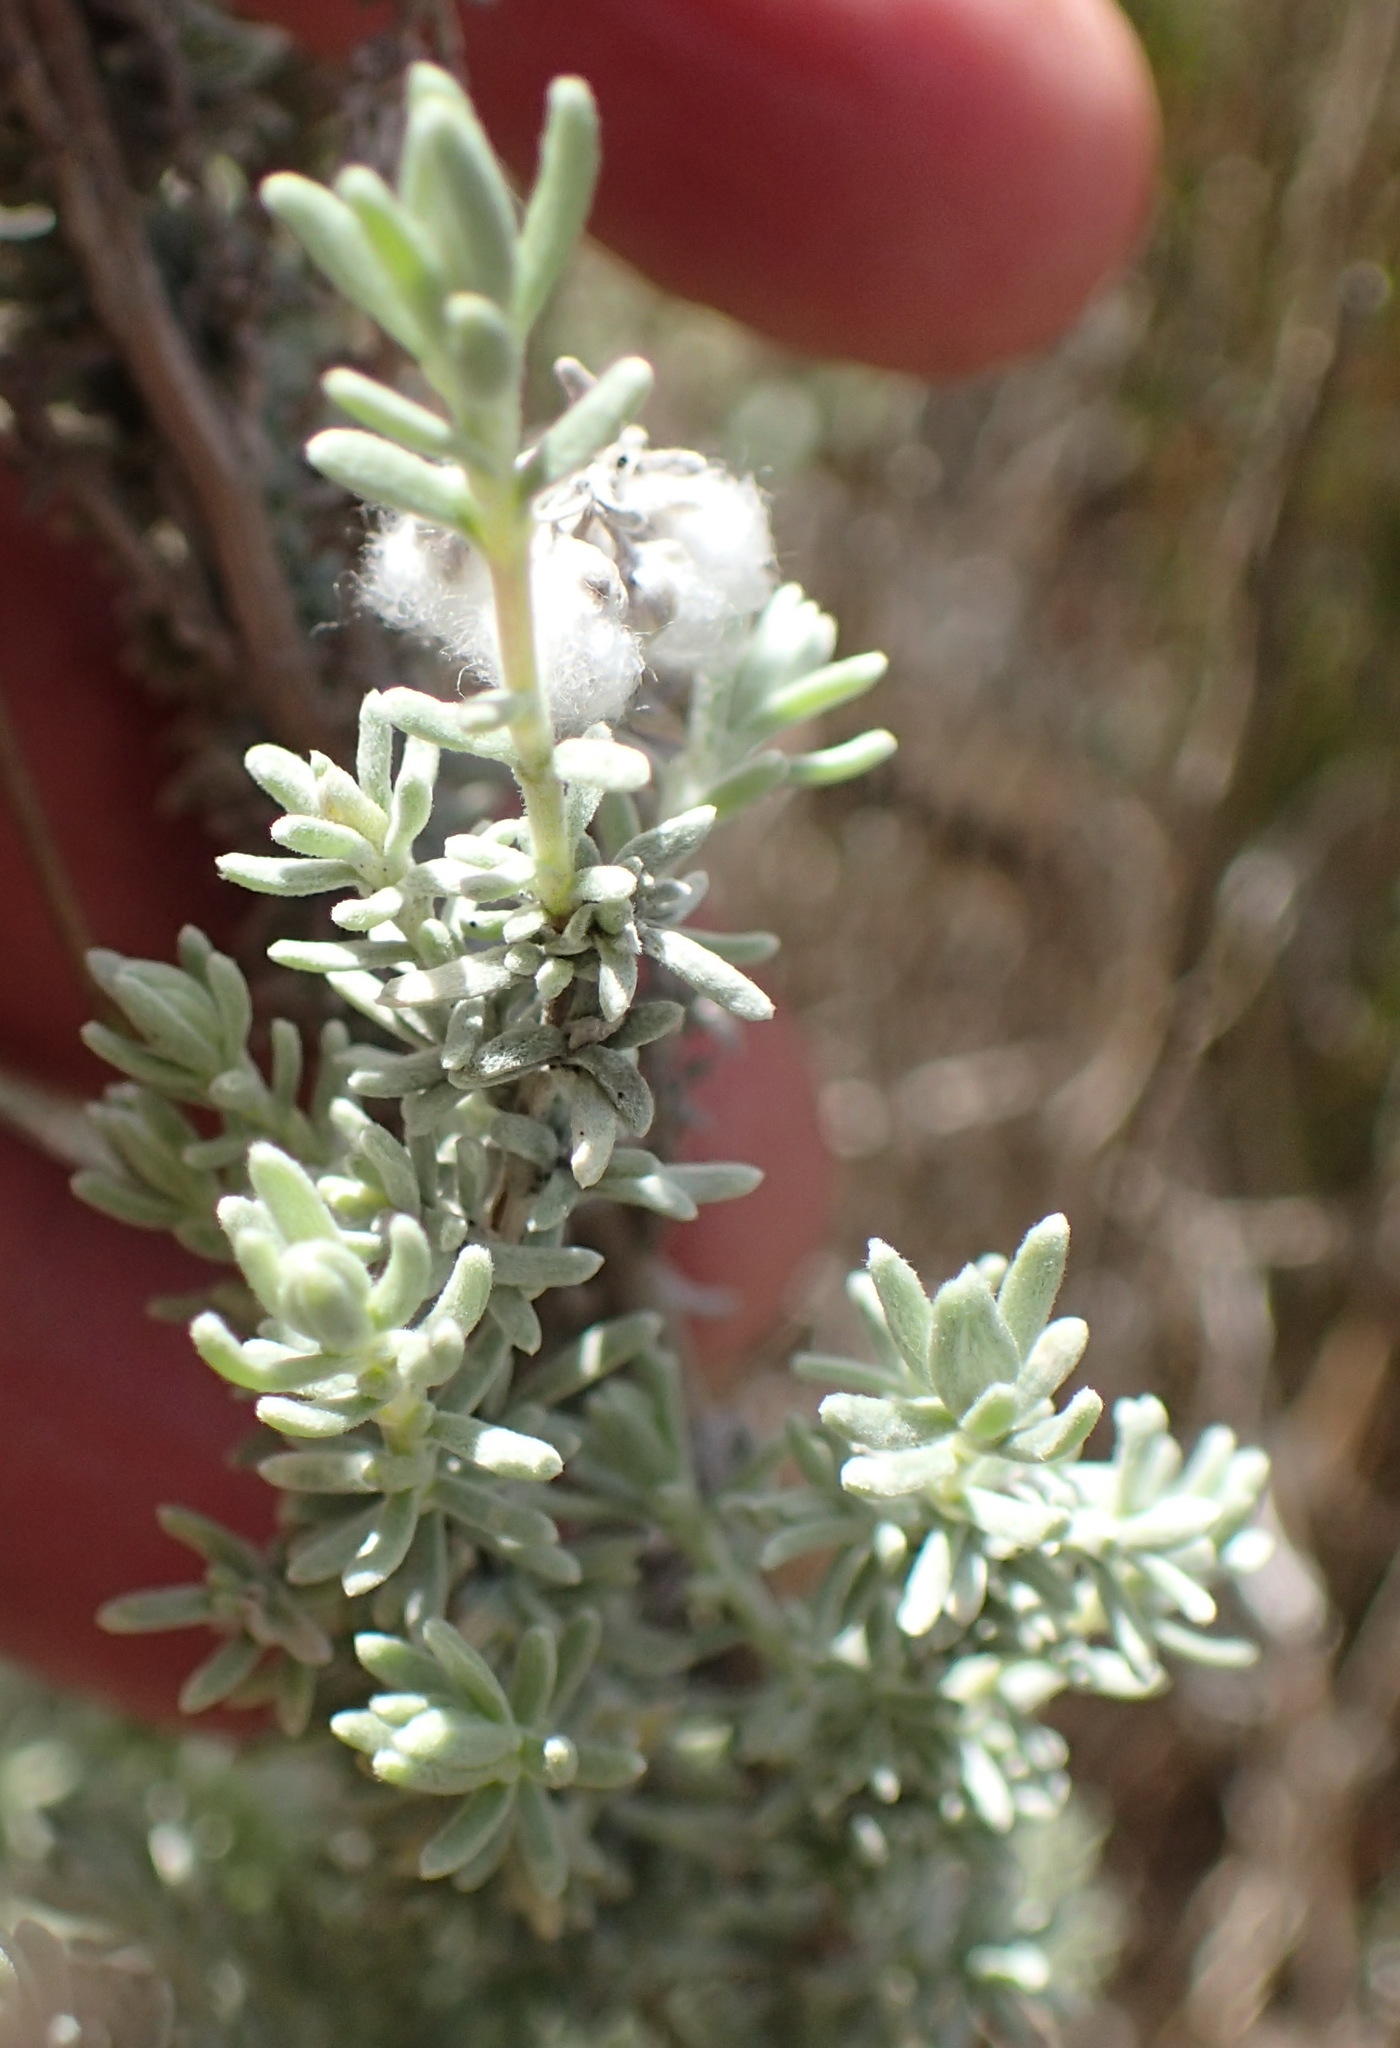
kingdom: Plantae
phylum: Tracheophyta
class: Magnoliopsida
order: Asterales
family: Asteraceae
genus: Eriocephalus
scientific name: Eriocephalus racemosus
